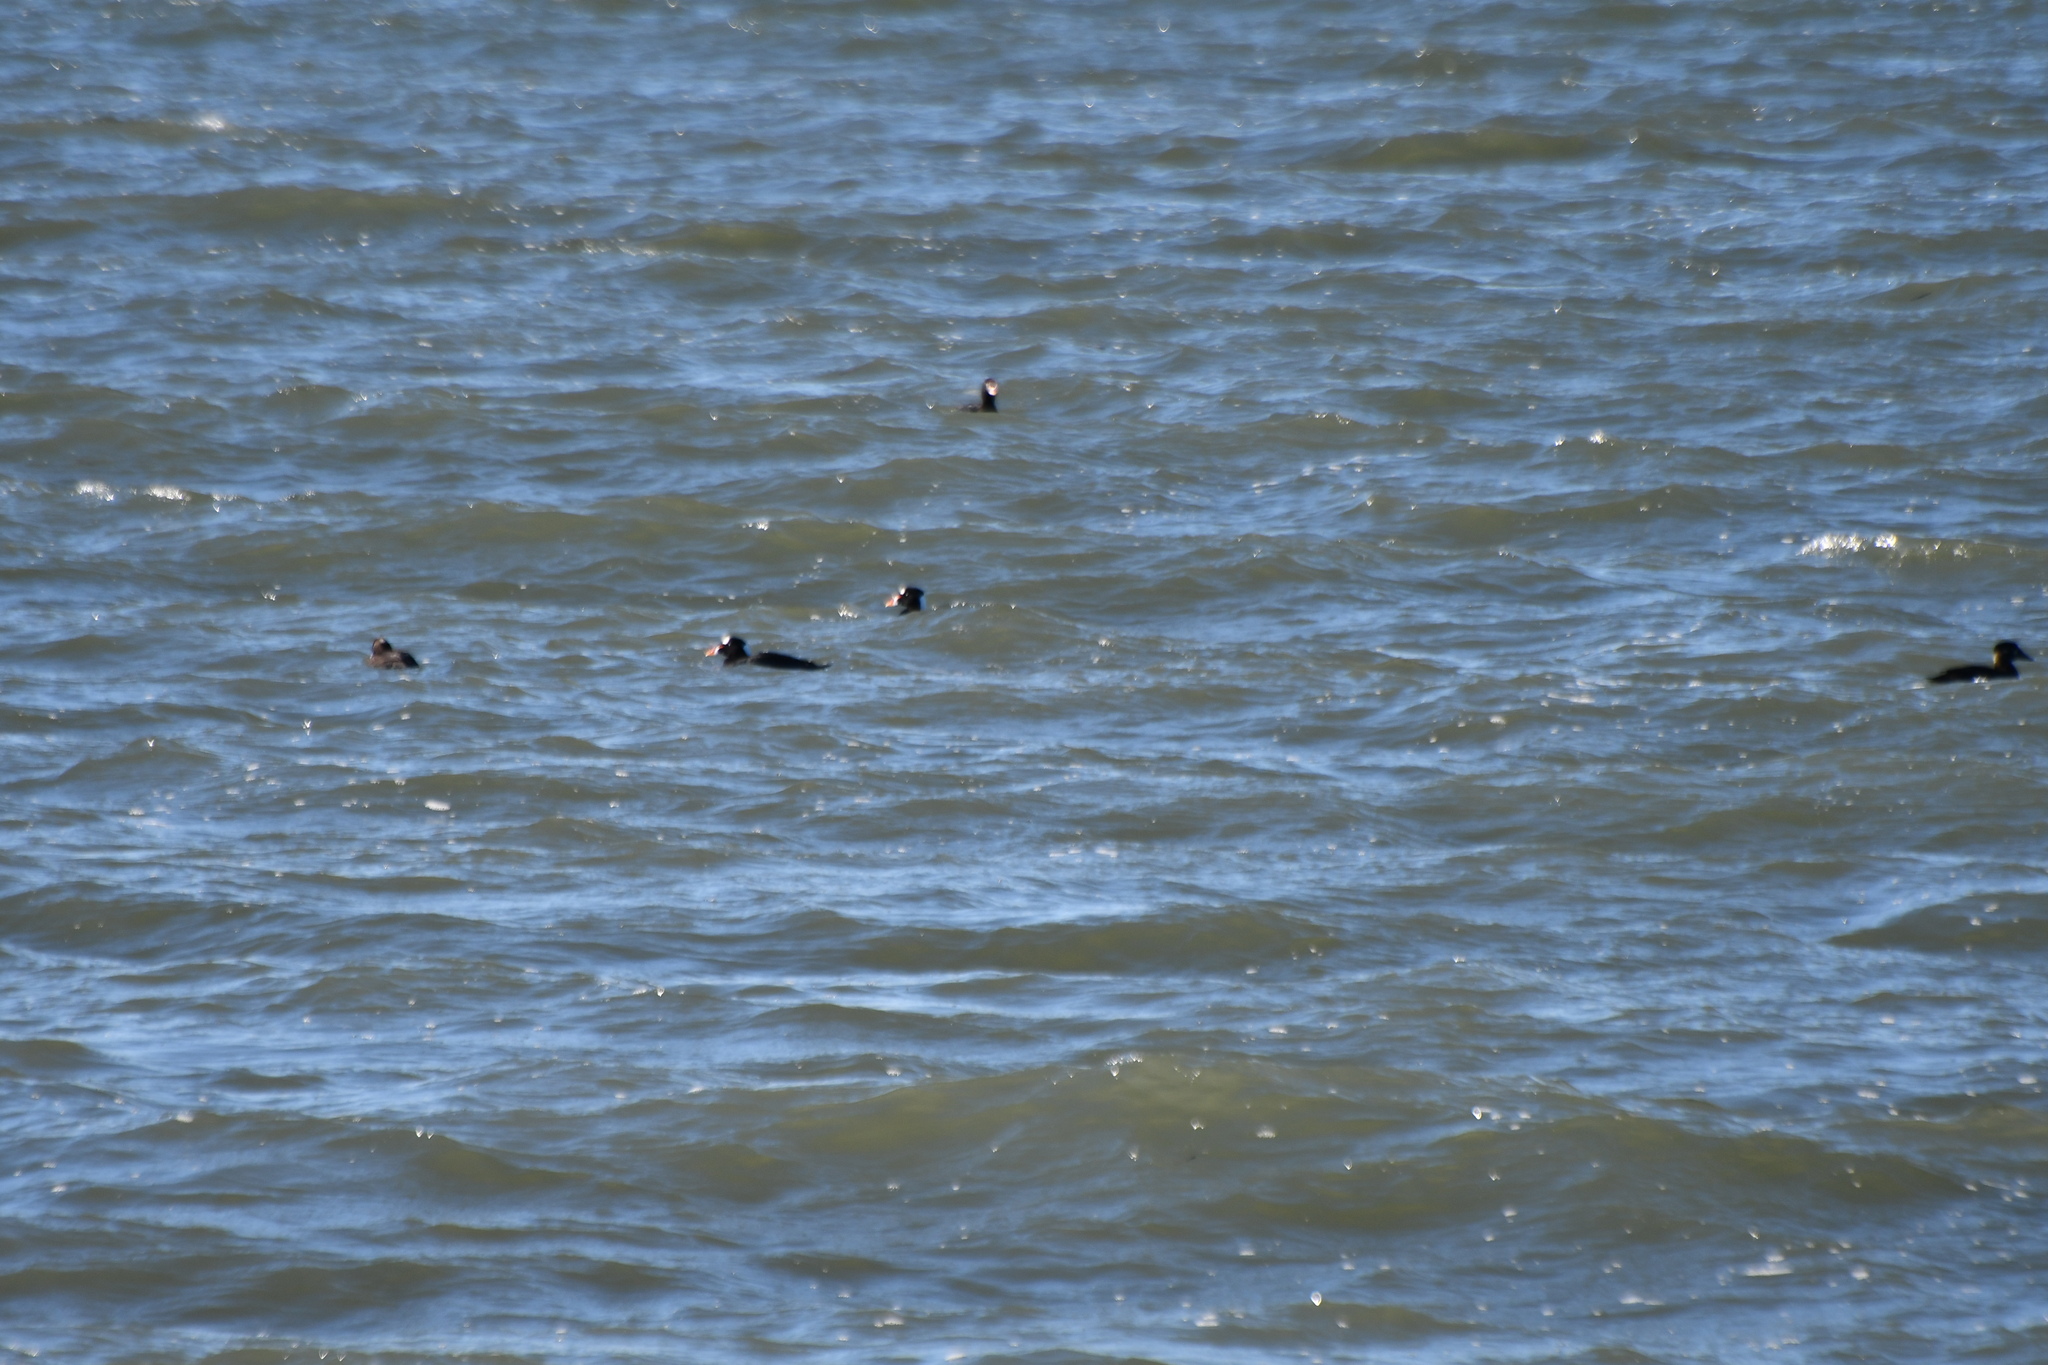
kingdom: Animalia
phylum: Chordata
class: Aves
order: Anseriformes
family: Anatidae
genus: Melanitta
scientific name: Melanitta perspicillata
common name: Surf scoter
